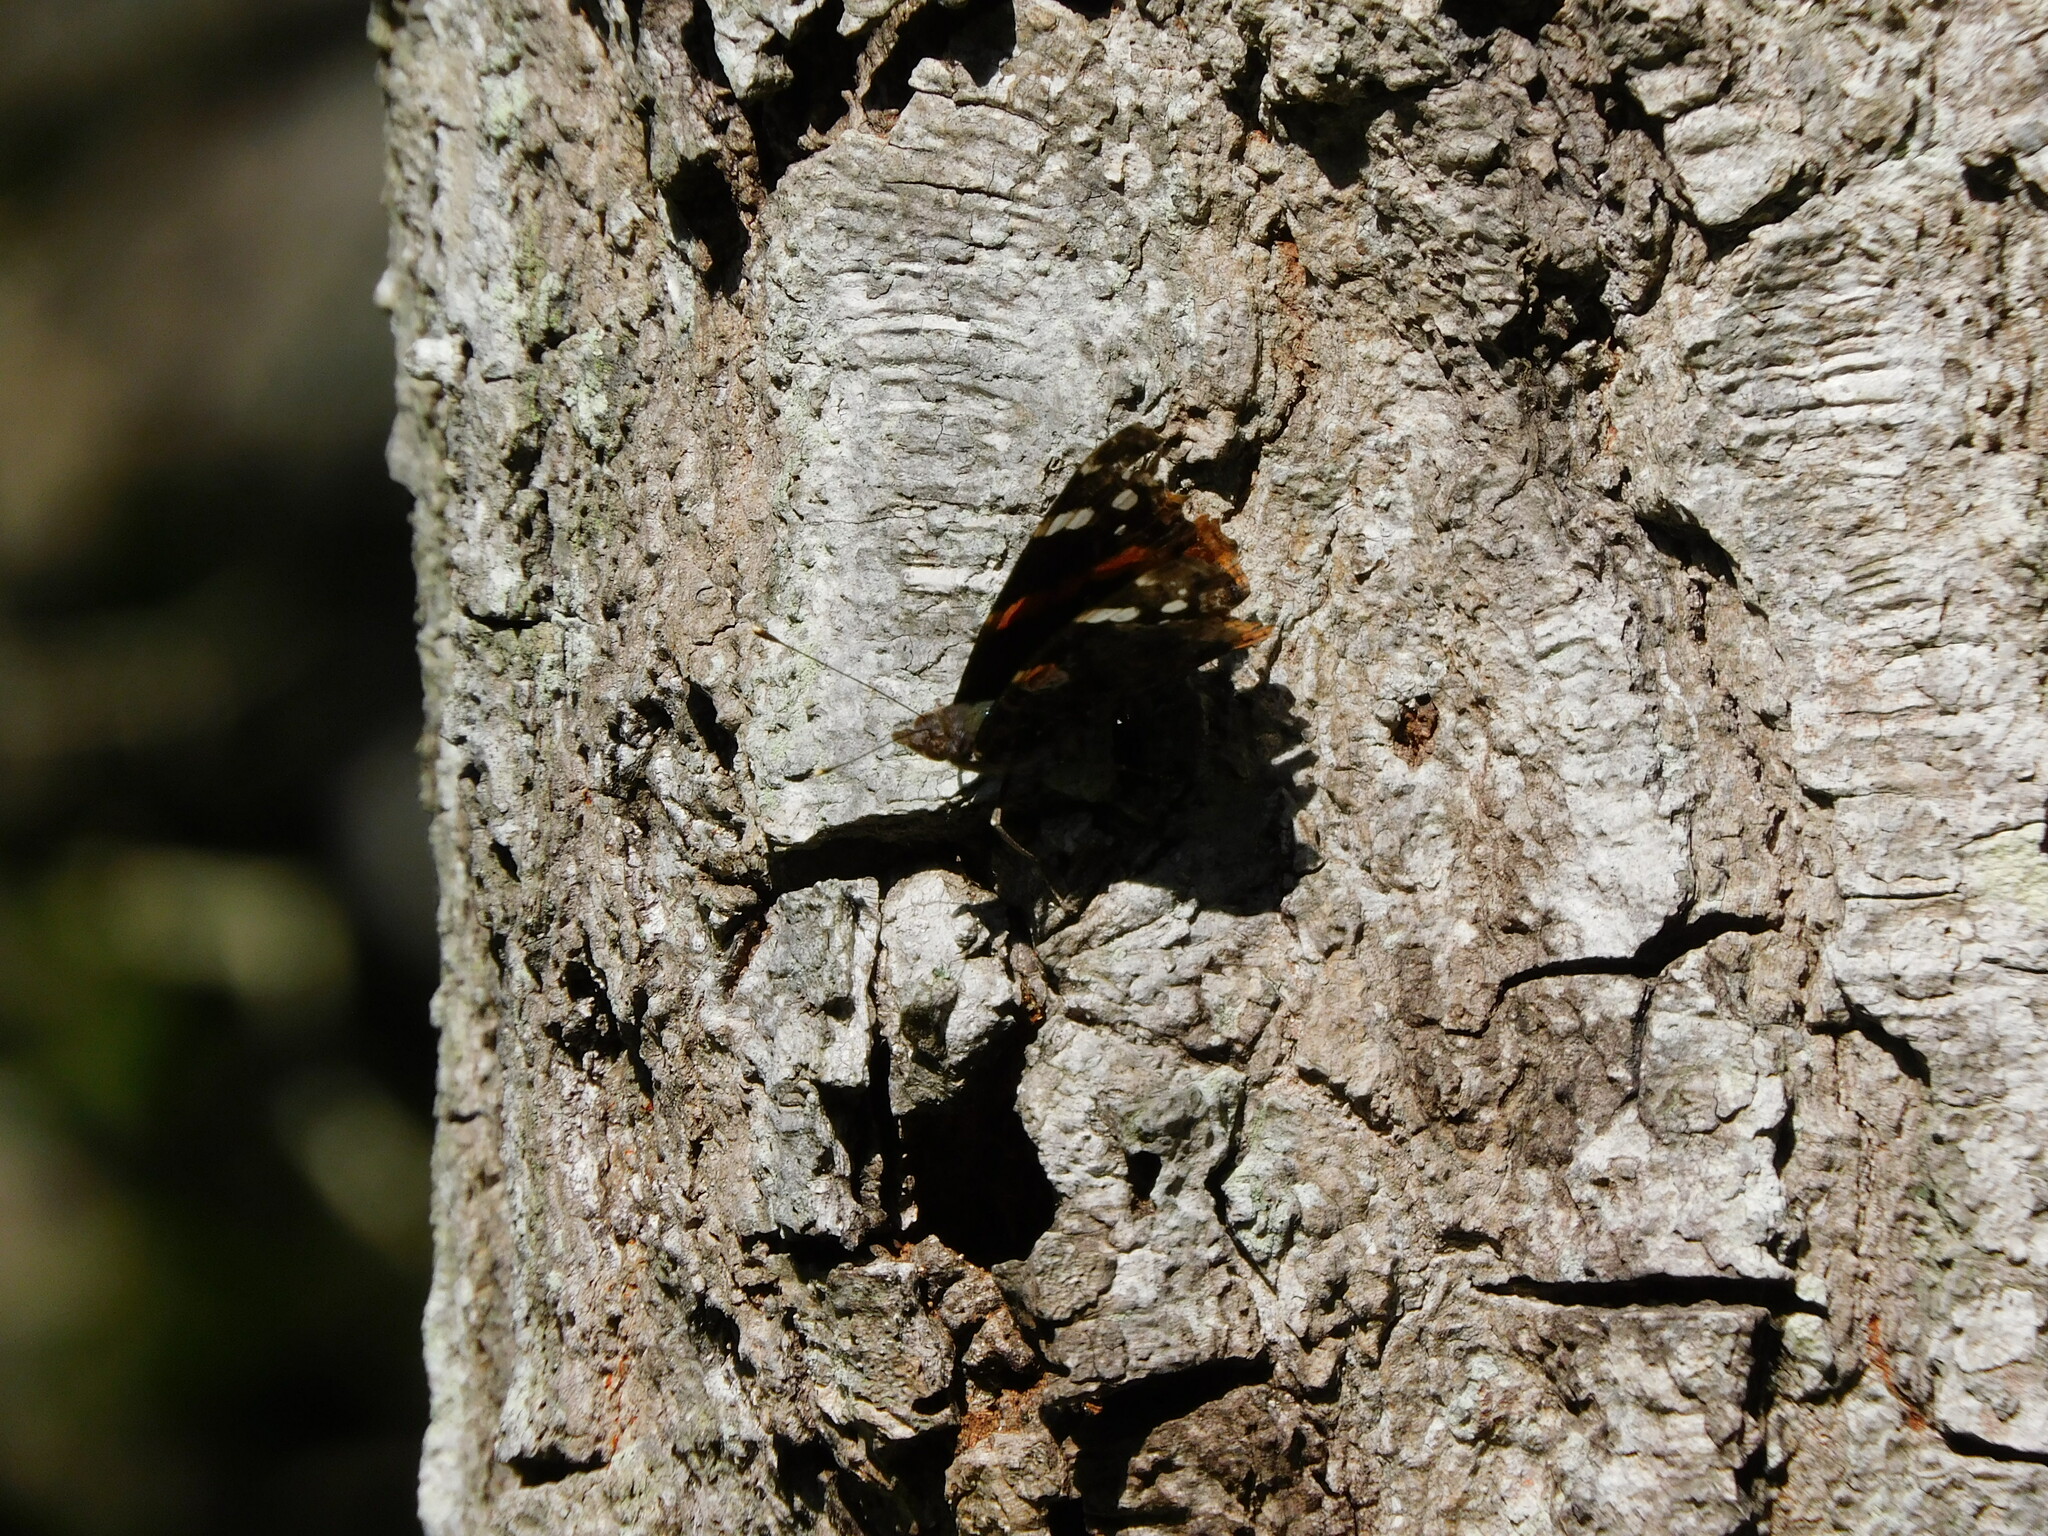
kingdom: Animalia
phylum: Arthropoda
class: Insecta
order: Lepidoptera
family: Nymphalidae
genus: Vanessa
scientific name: Vanessa atalanta
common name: Red admiral
